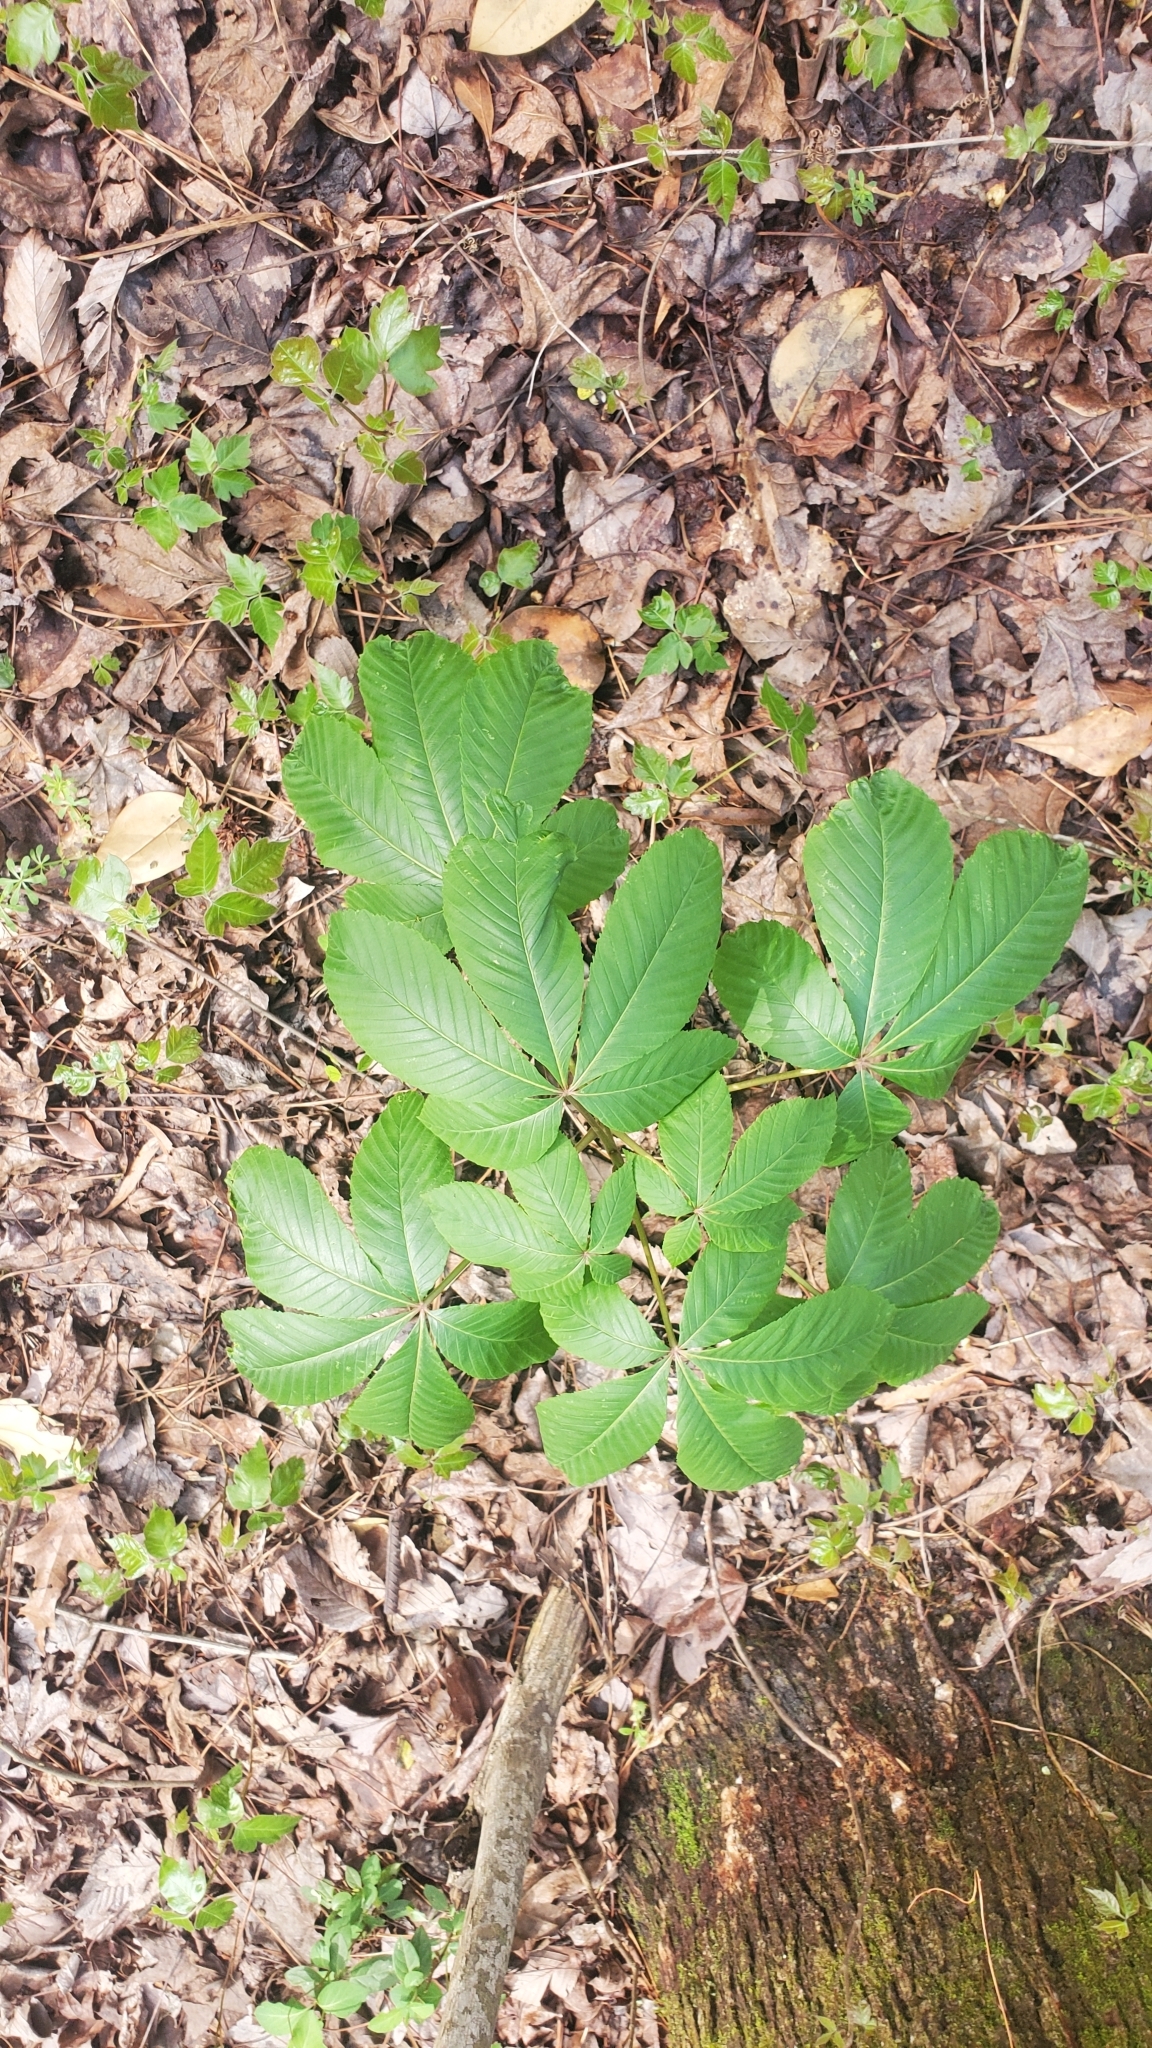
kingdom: Plantae
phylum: Tracheophyta
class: Magnoliopsida
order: Sapindales
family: Sapindaceae
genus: Aesculus
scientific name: Aesculus pavia
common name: Red buckeye
